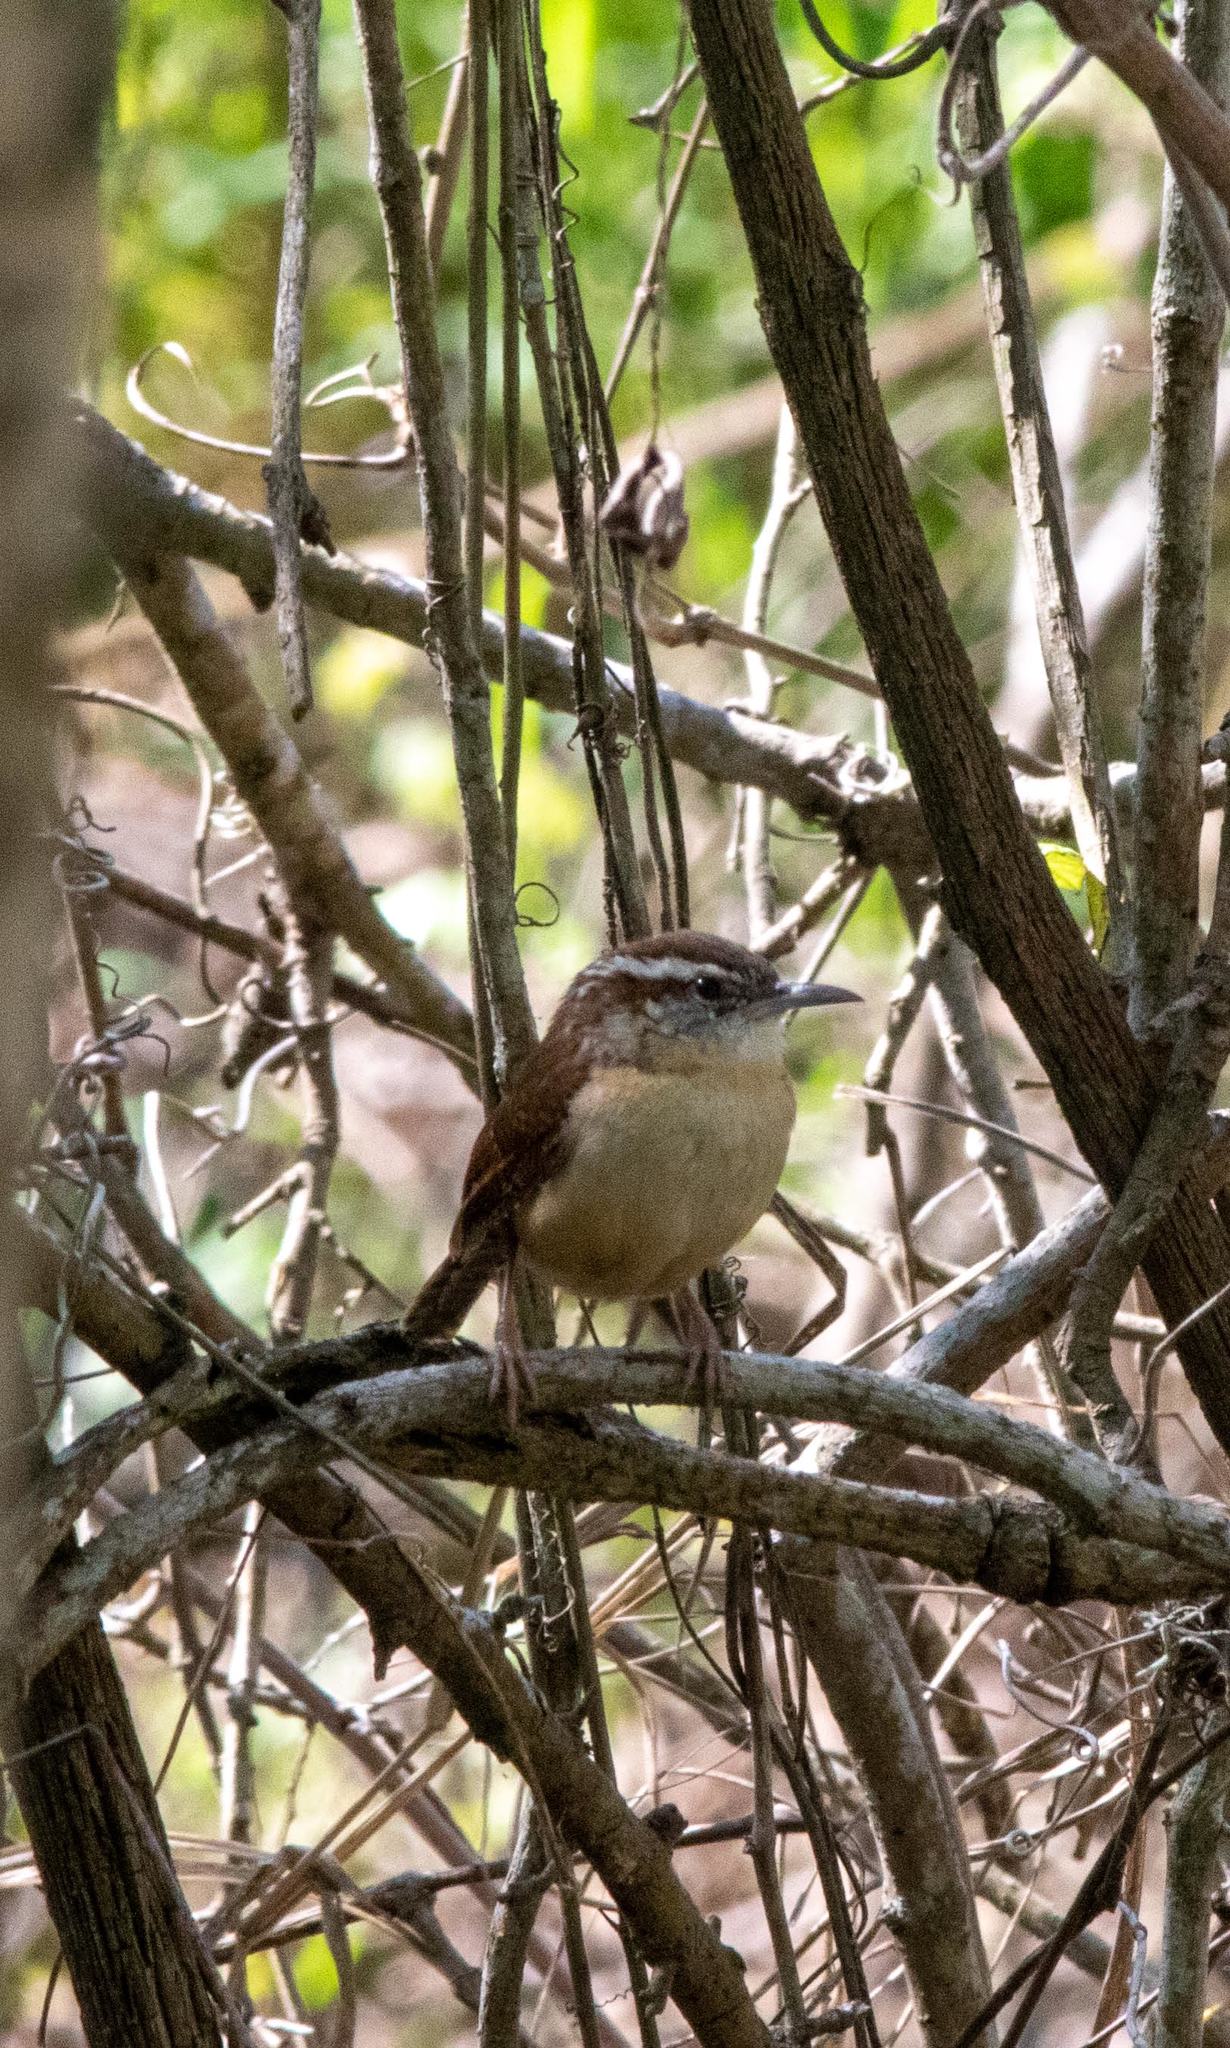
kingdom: Animalia
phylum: Chordata
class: Aves
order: Passeriformes
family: Troglodytidae
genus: Thryothorus
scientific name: Thryothorus ludovicianus
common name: Carolina wren
